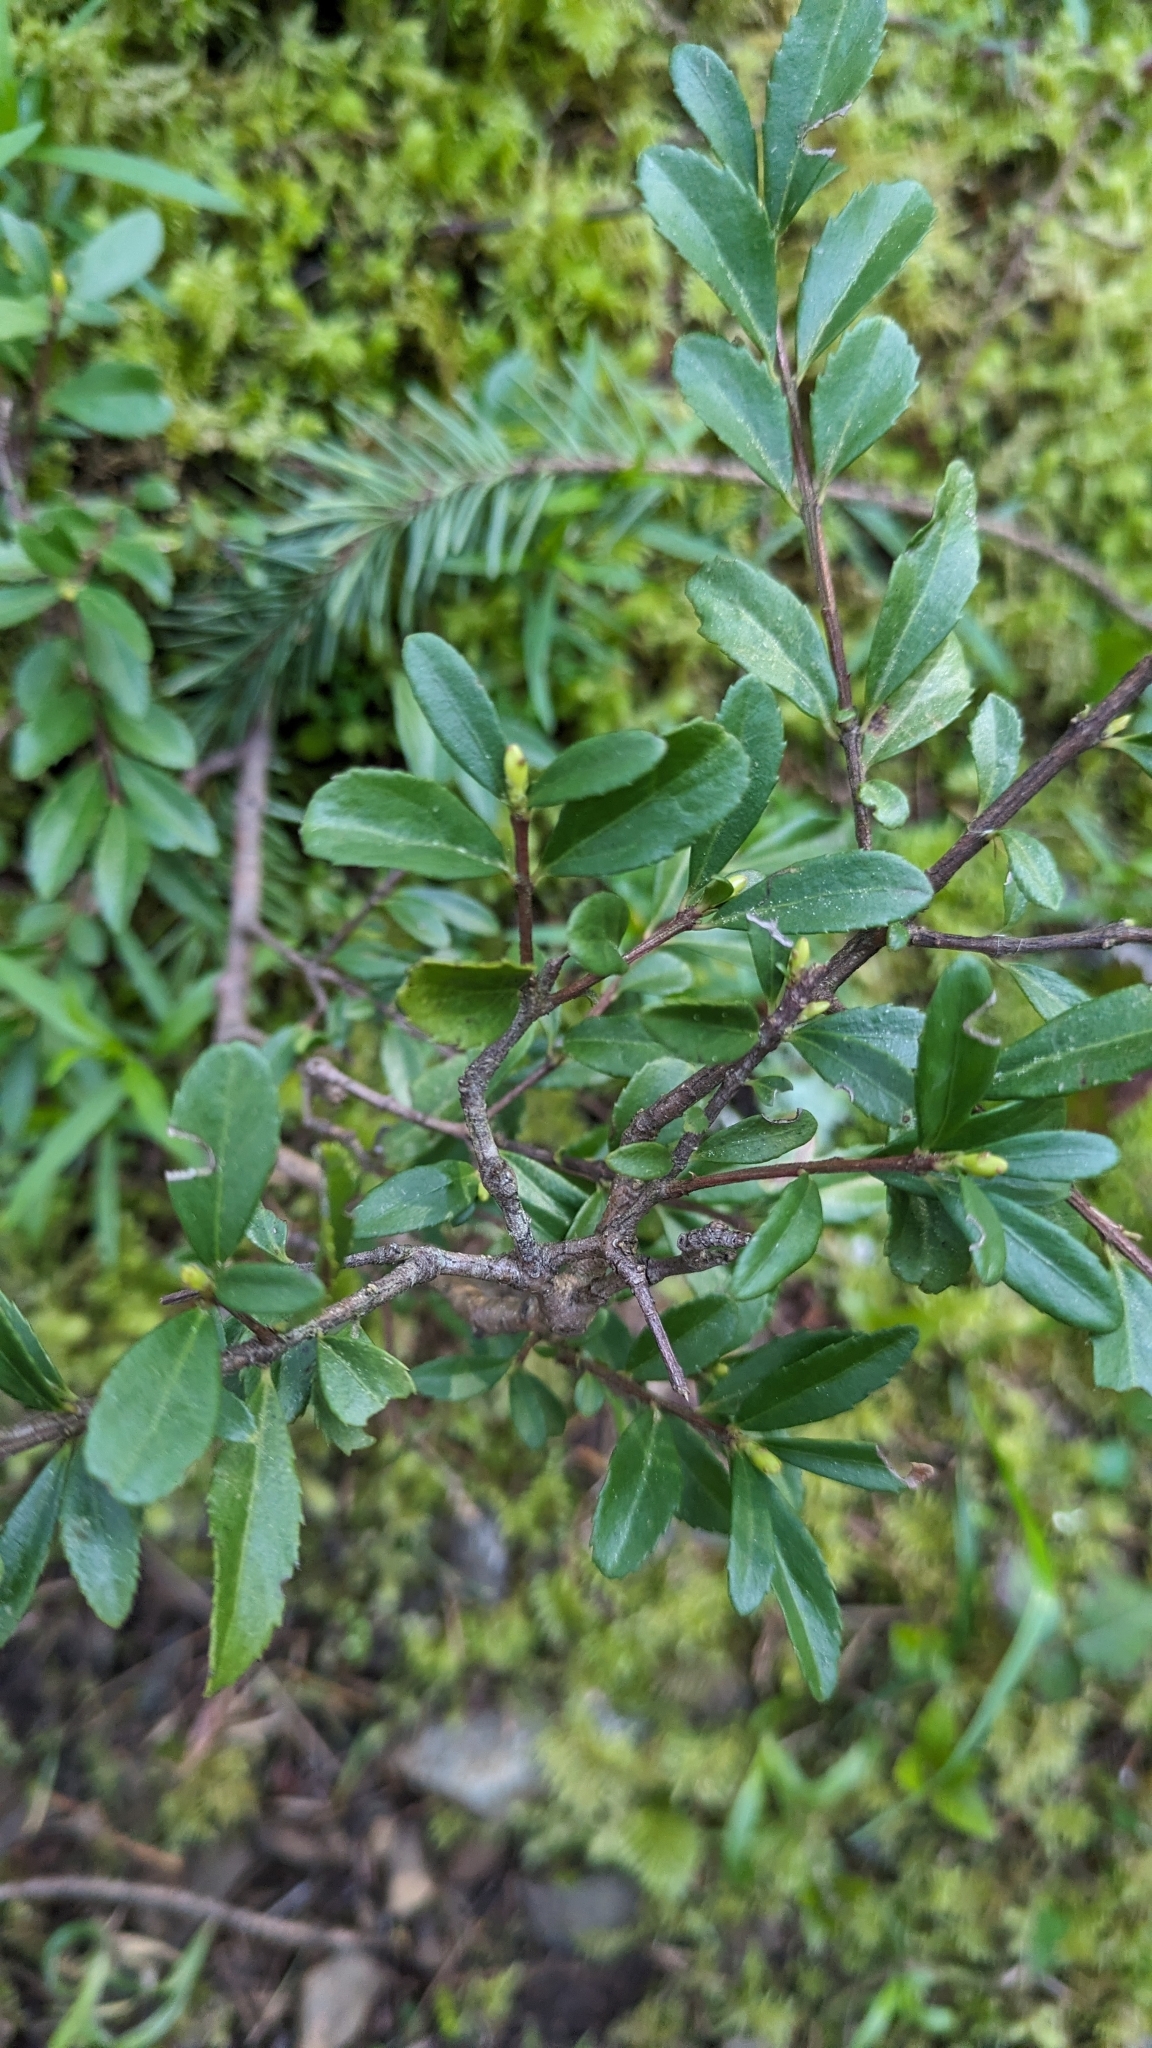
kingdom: Plantae
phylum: Tracheophyta
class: Magnoliopsida
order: Celastrales
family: Celastraceae
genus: Paxistima
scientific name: Paxistima myrsinites
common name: Mountain-lover
